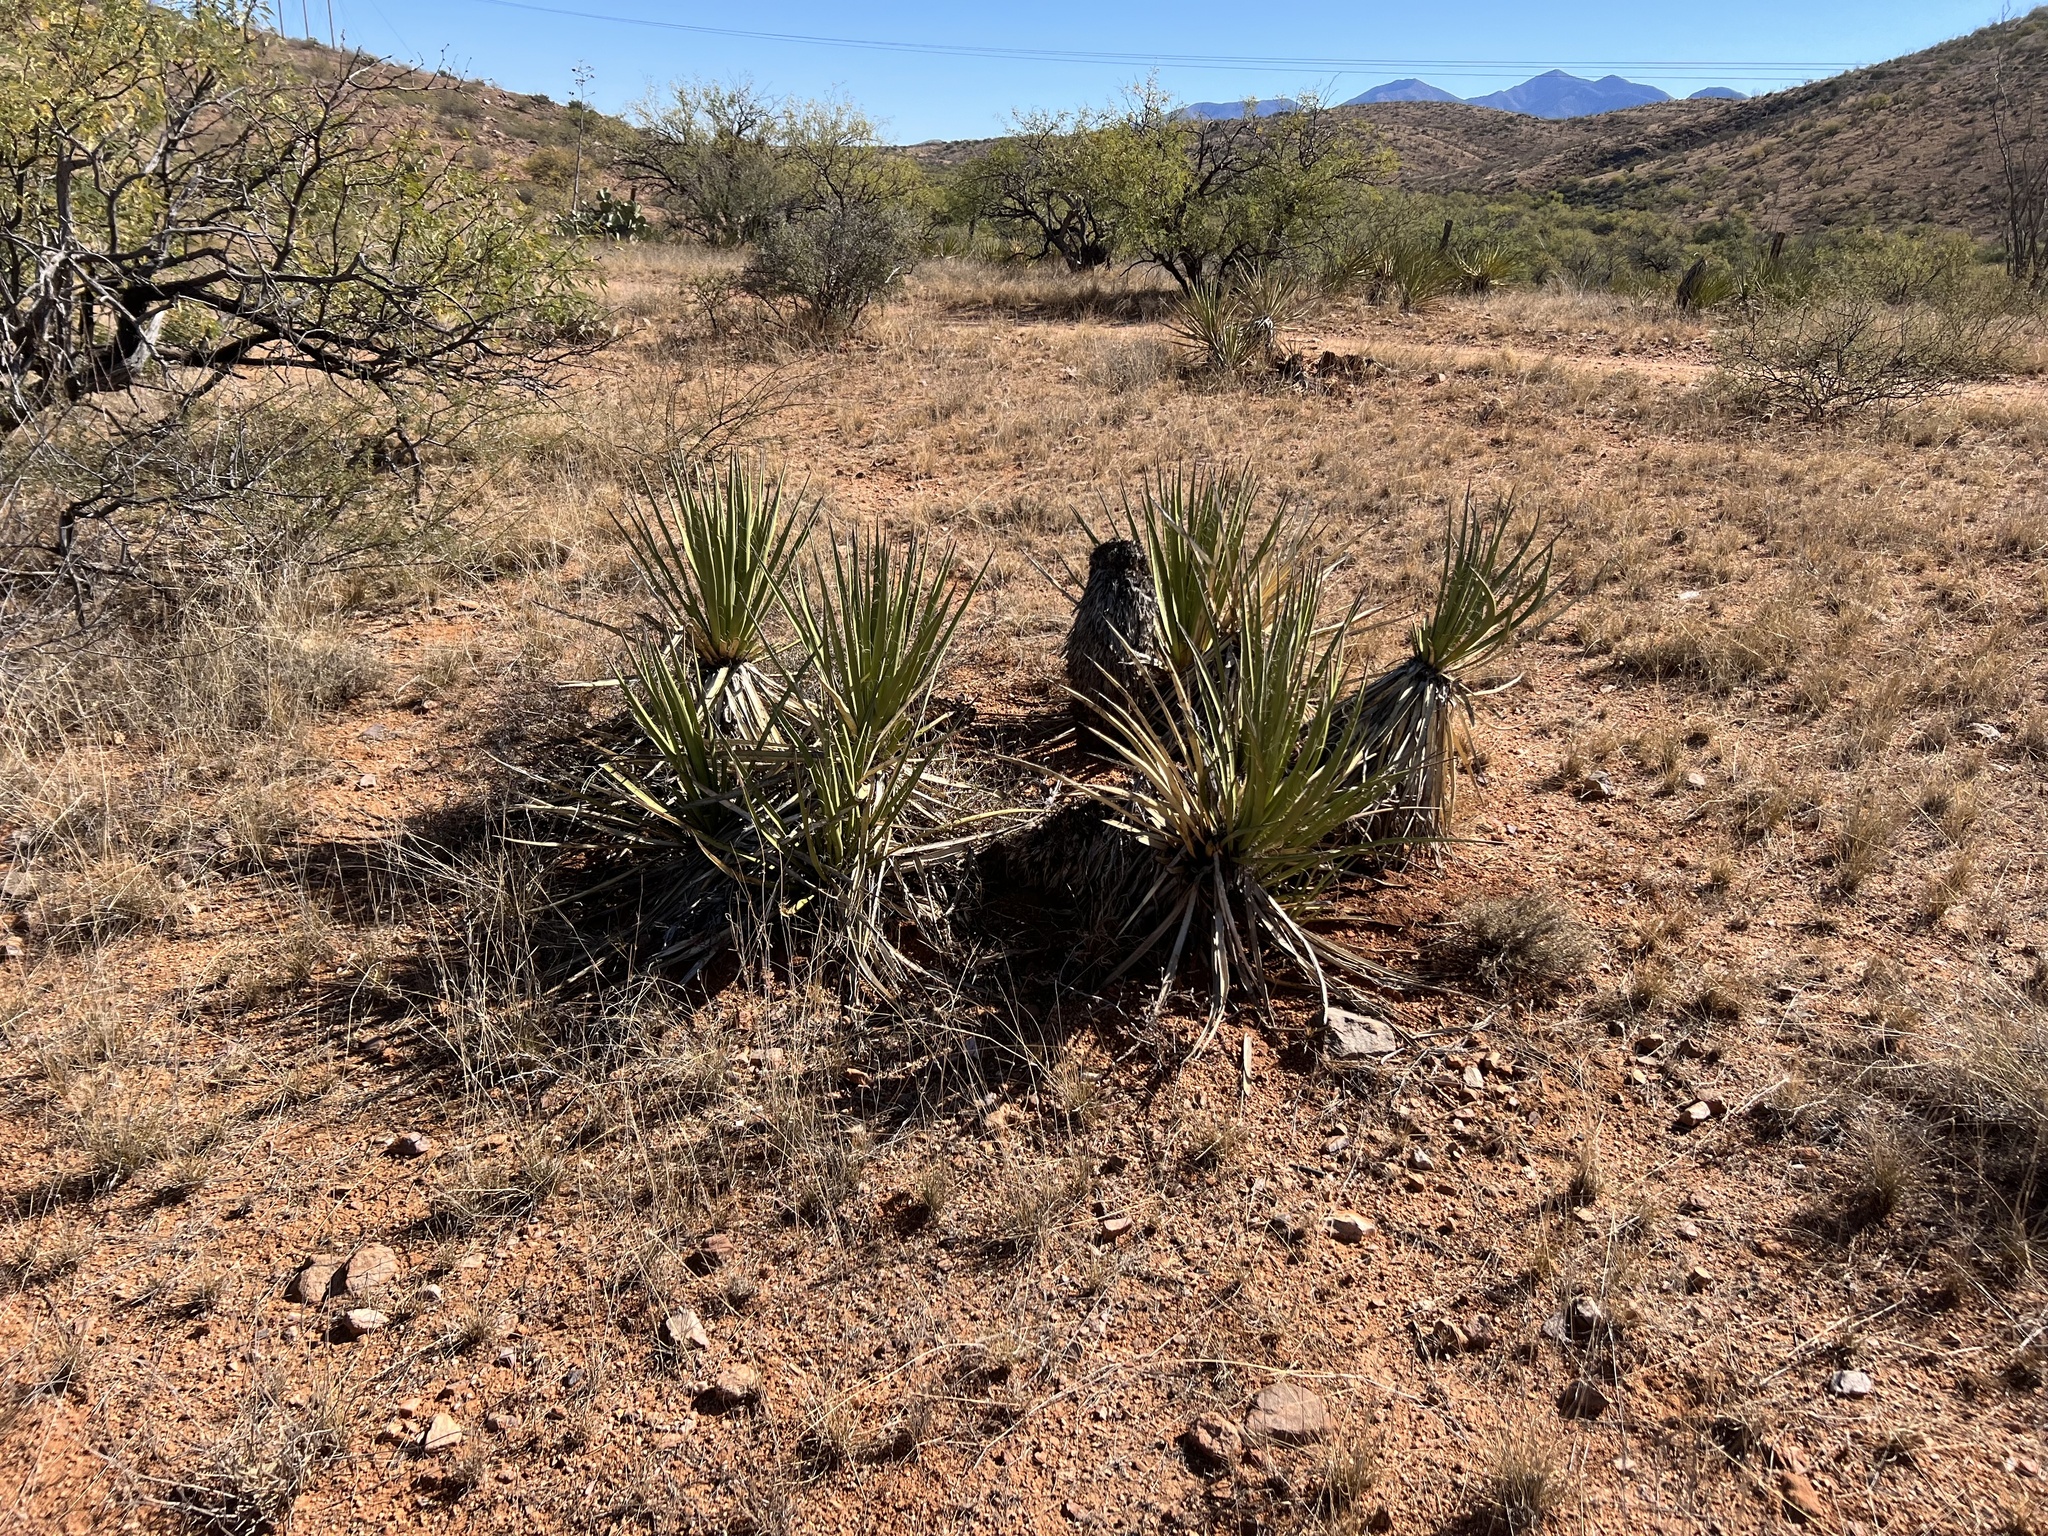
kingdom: Plantae
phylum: Tracheophyta
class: Liliopsida
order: Asparagales
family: Asparagaceae
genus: Yucca
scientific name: Yucca baccata
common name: Banana yucca
